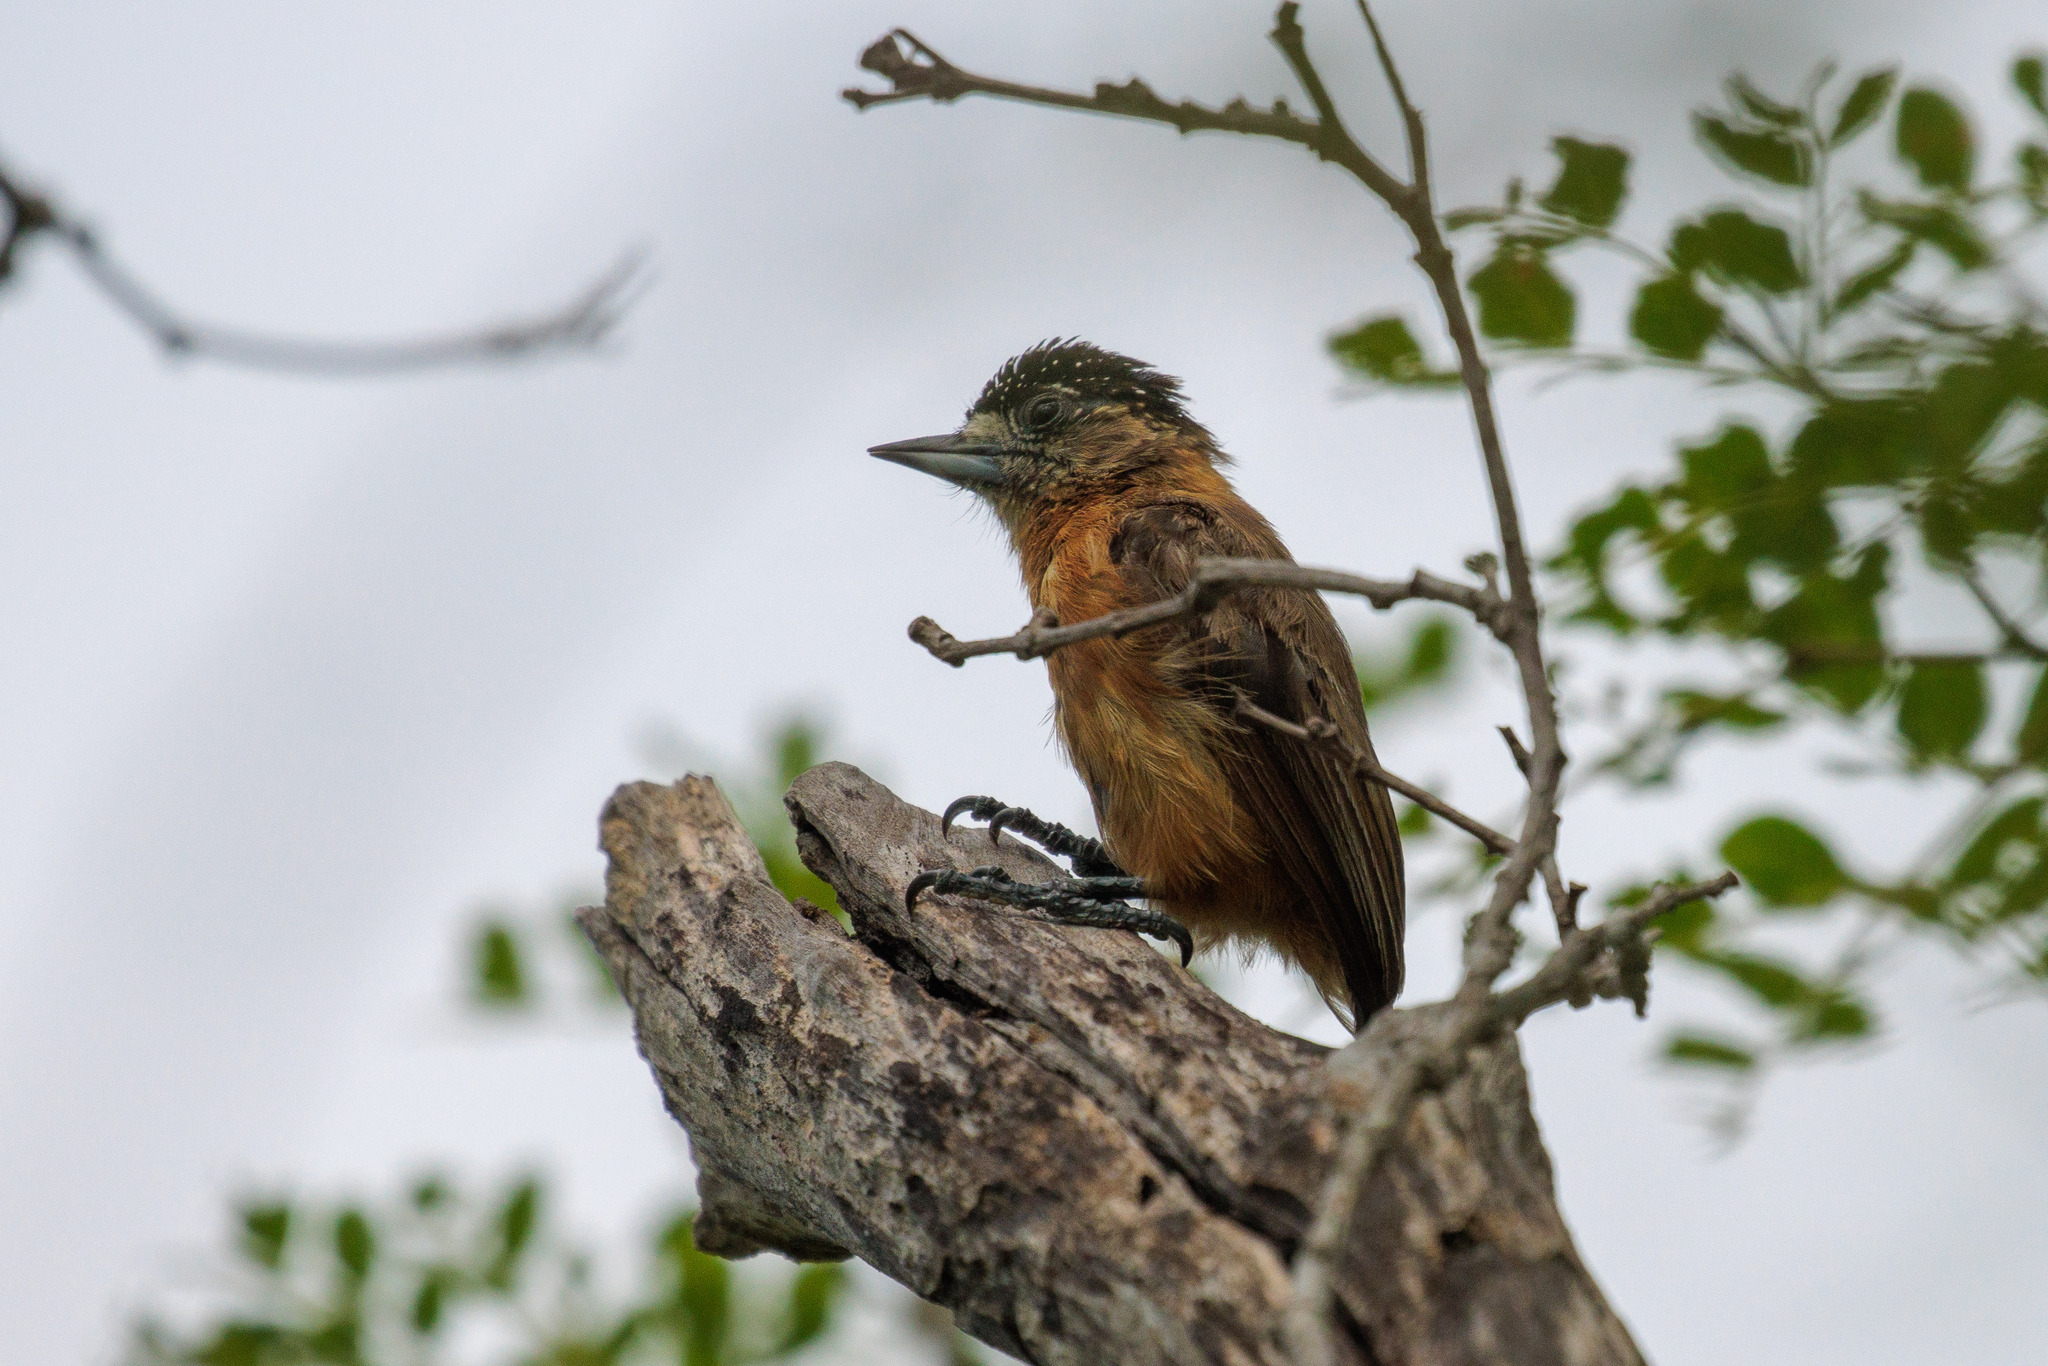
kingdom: Animalia
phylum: Chordata
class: Aves
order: Piciformes
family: Picidae
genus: Picumnus
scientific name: Picumnus limae
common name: Ochraceous piculet
